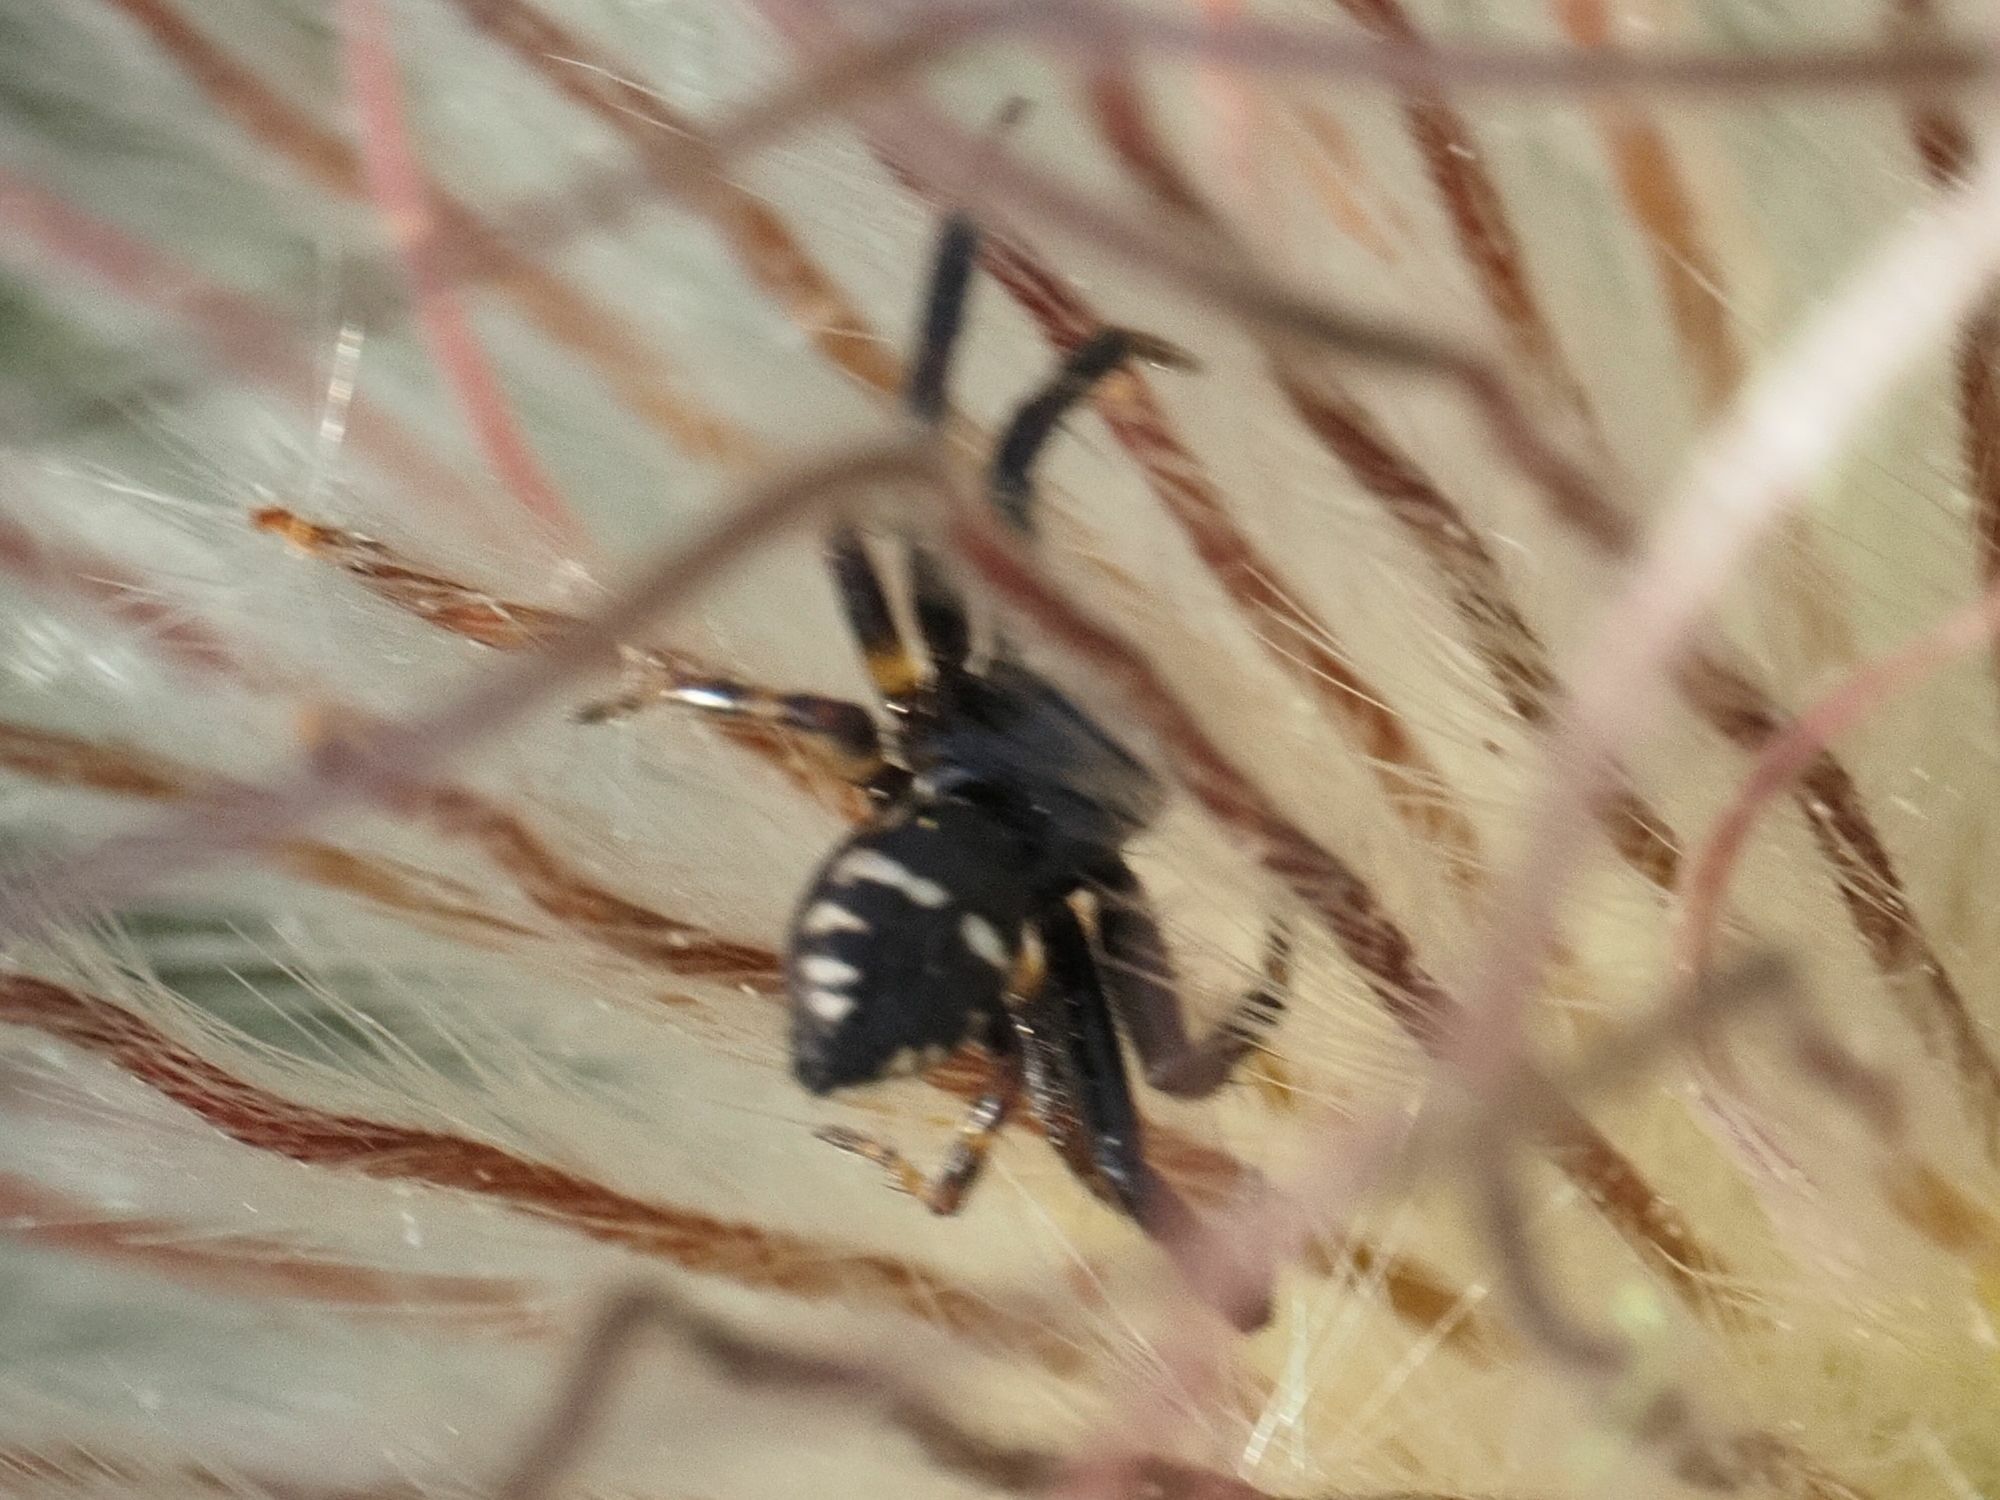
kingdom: Animalia
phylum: Arthropoda
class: Arachnida
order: Araneae
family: Thomisidae
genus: Synema
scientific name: Synema globosum
